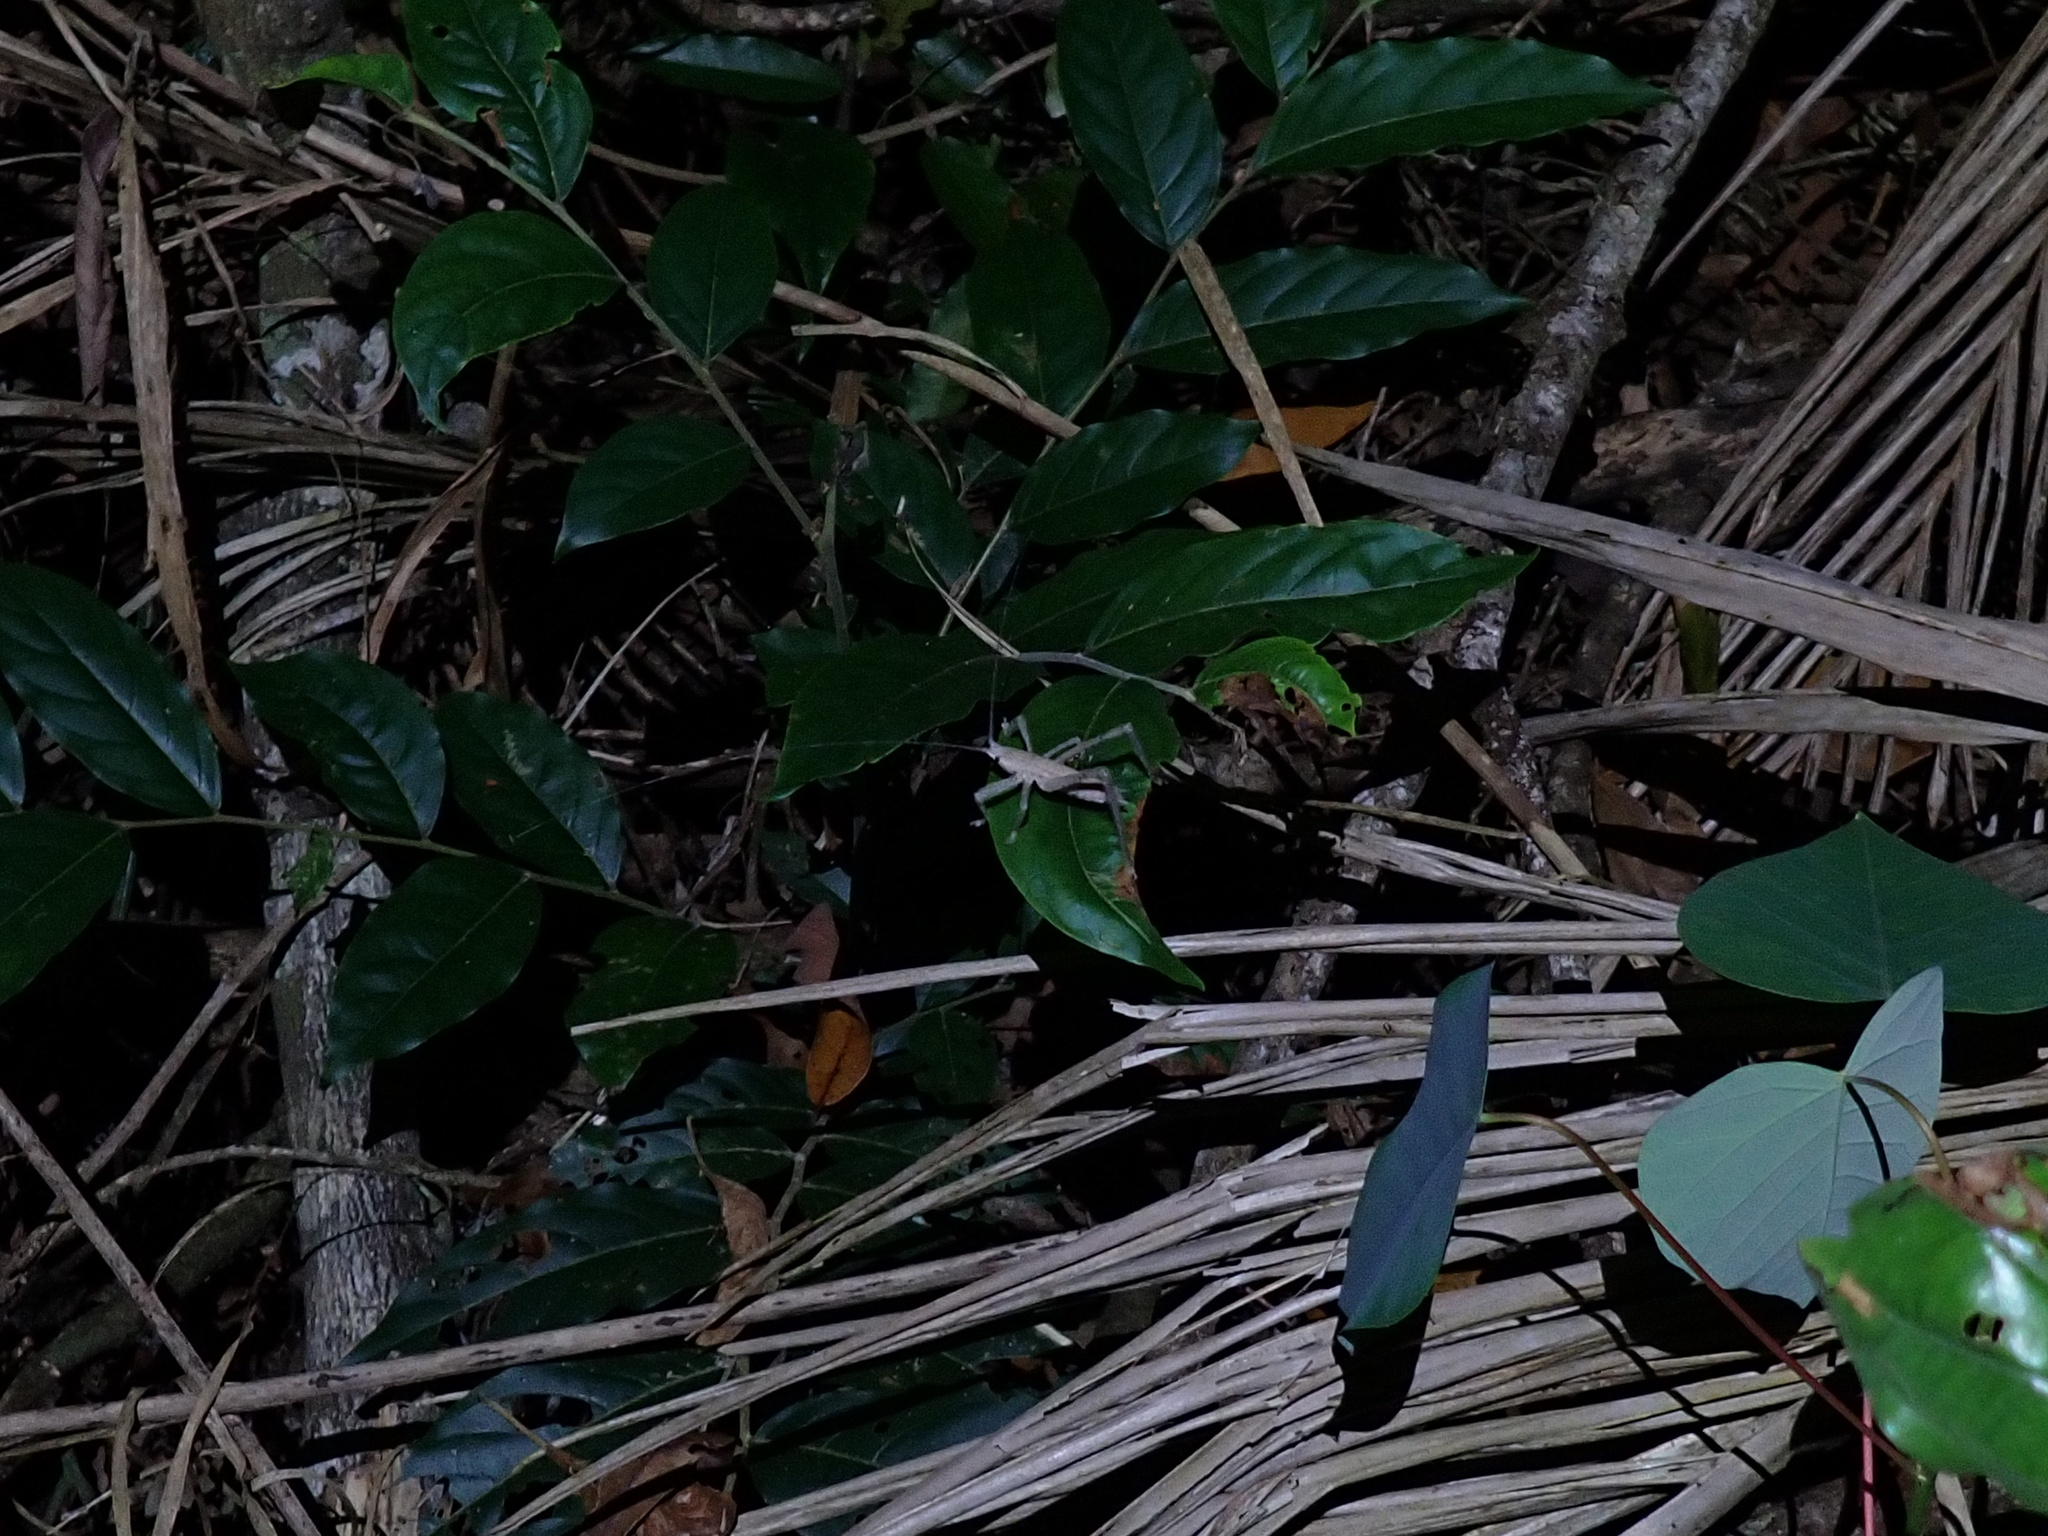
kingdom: Animalia
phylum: Arthropoda
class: Insecta
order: Orthoptera
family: Tettigoniidae
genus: Segestidea
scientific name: Segestidea queenslandica
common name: Queensland palm katydid
